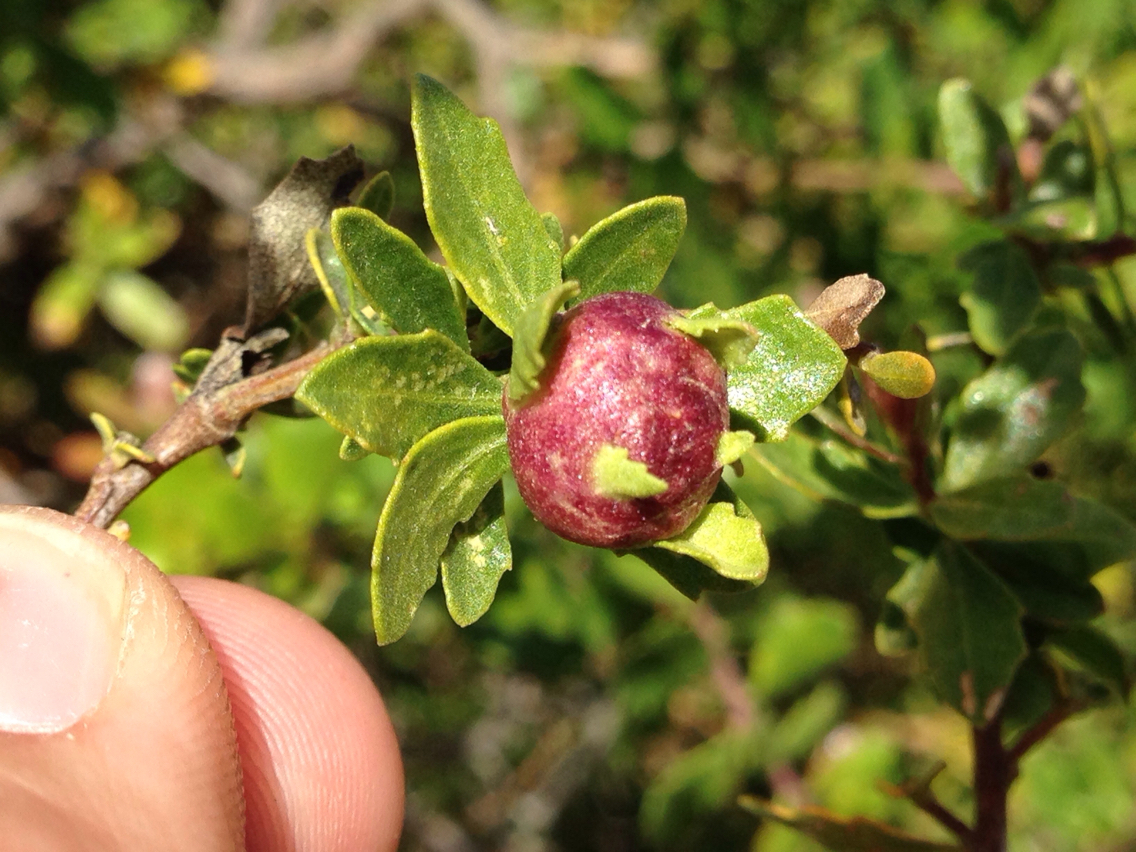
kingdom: Animalia
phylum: Arthropoda
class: Insecta
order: Diptera
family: Cecidomyiidae
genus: Rhopalomyia
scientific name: Rhopalomyia californica
